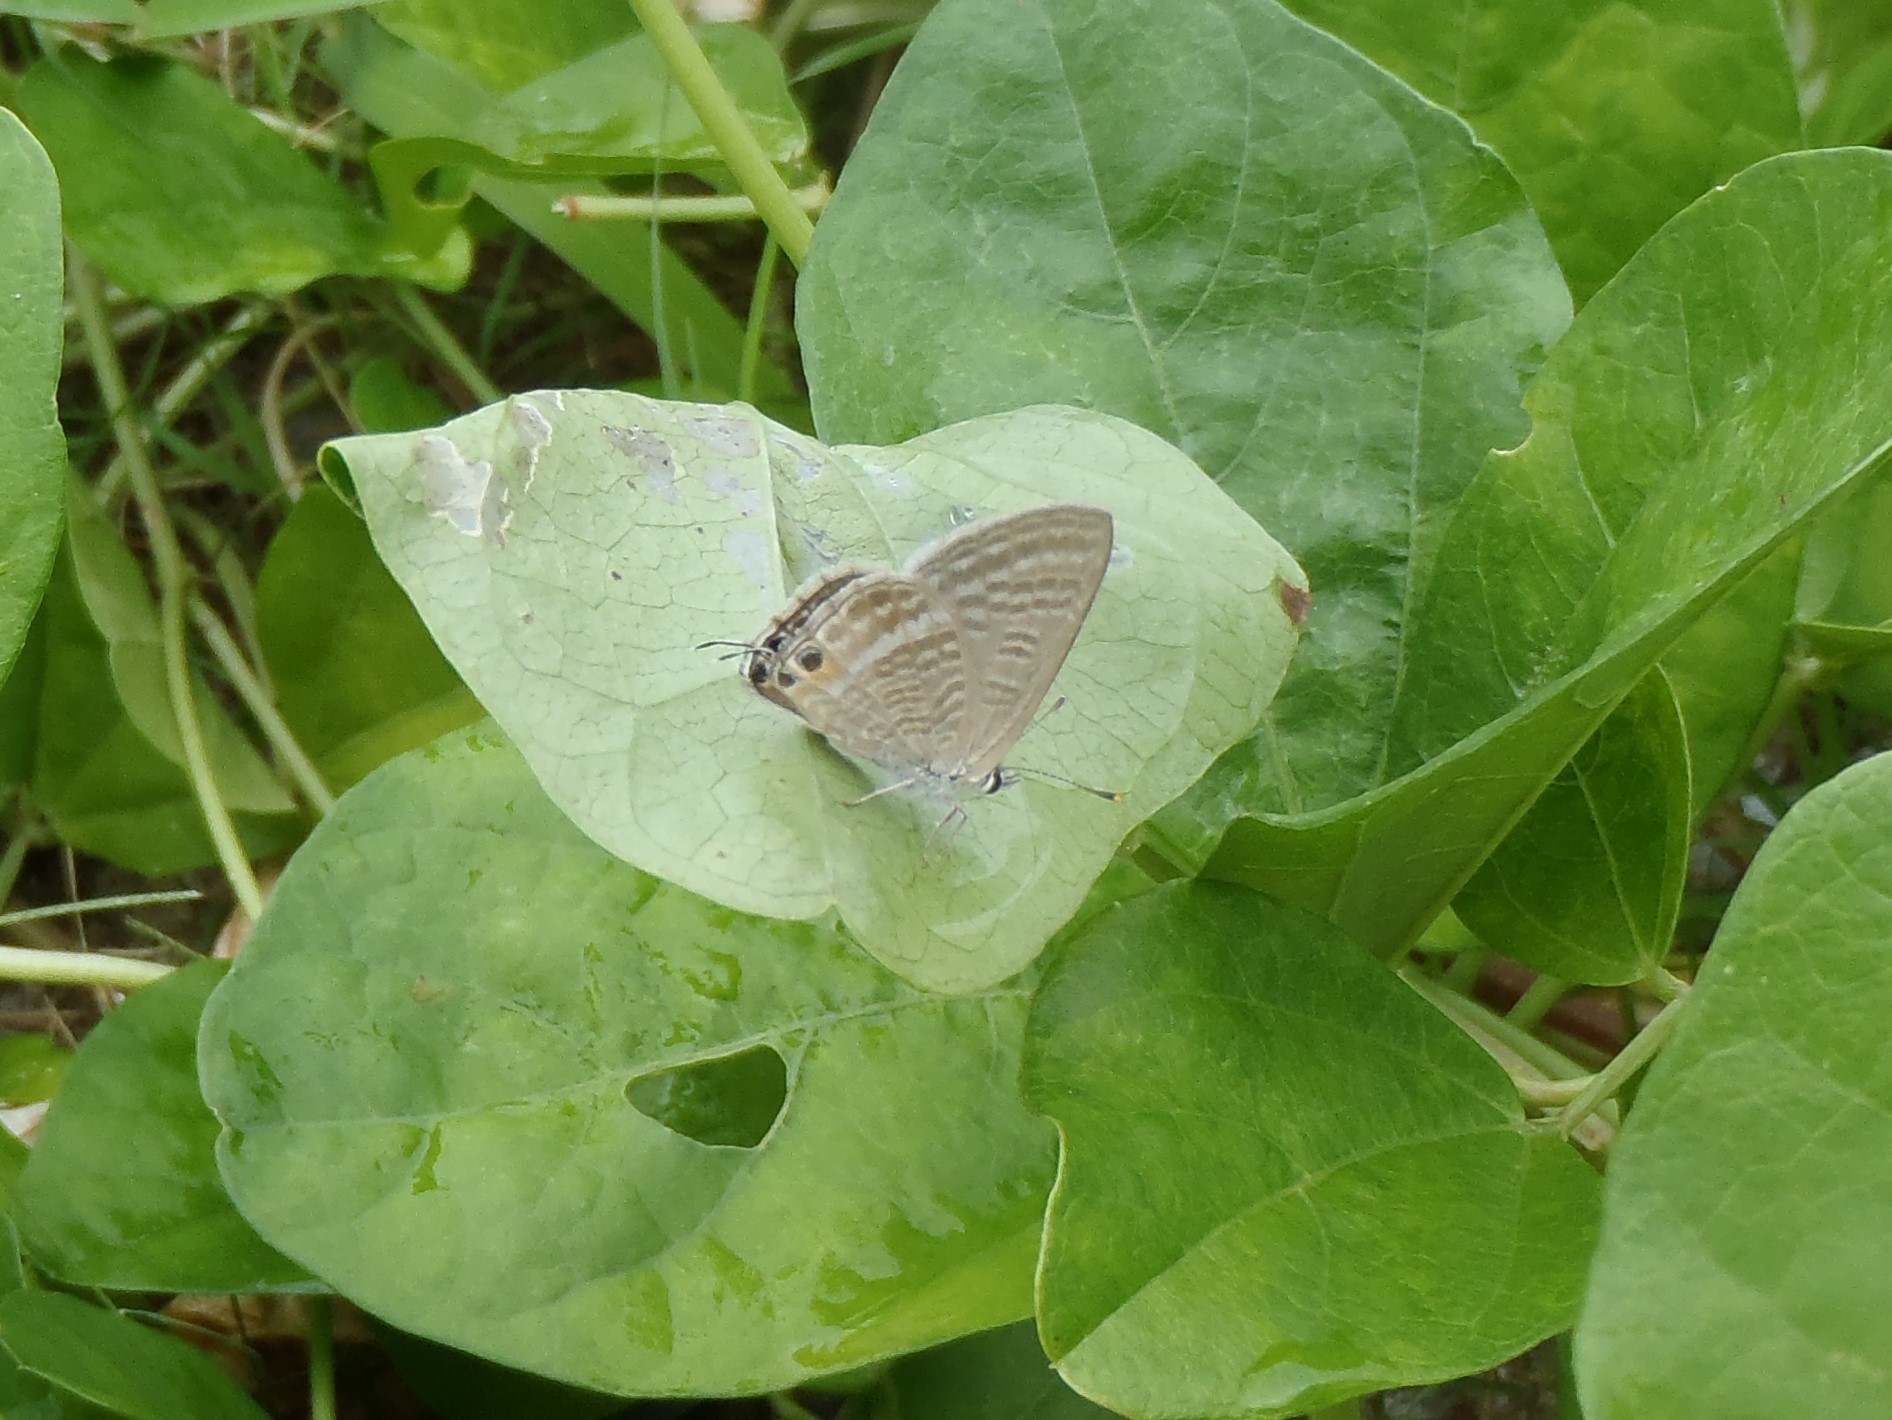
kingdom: Animalia
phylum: Arthropoda
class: Insecta
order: Lepidoptera
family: Lycaenidae
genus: Lampides
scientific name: Lampides boeticus
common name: Long-tailed blue
